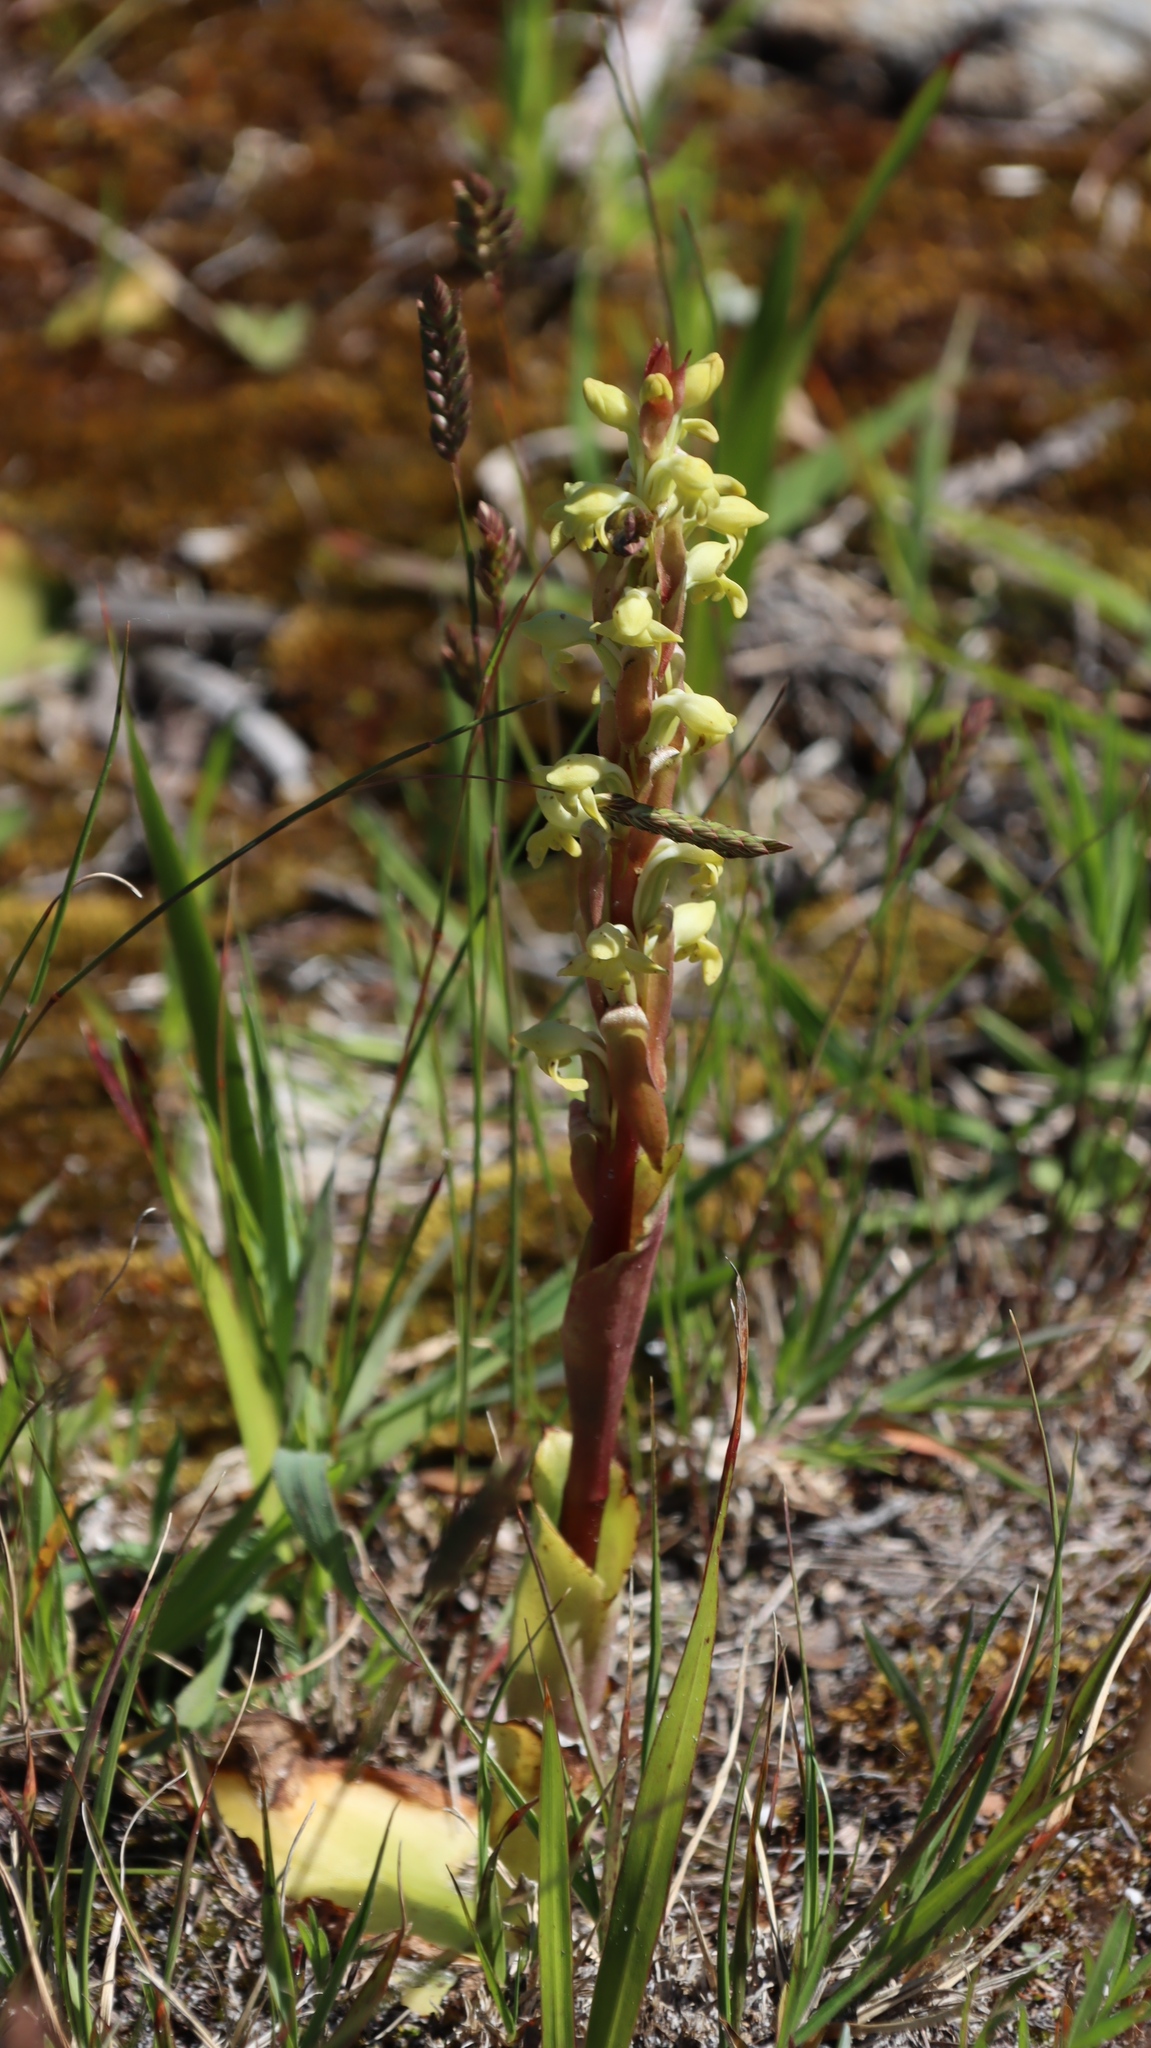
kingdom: Plantae
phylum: Tracheophyta
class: Liliopsida
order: Asparagales
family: Orchidaceae
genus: Satyrium
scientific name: Satyrium bicorne
